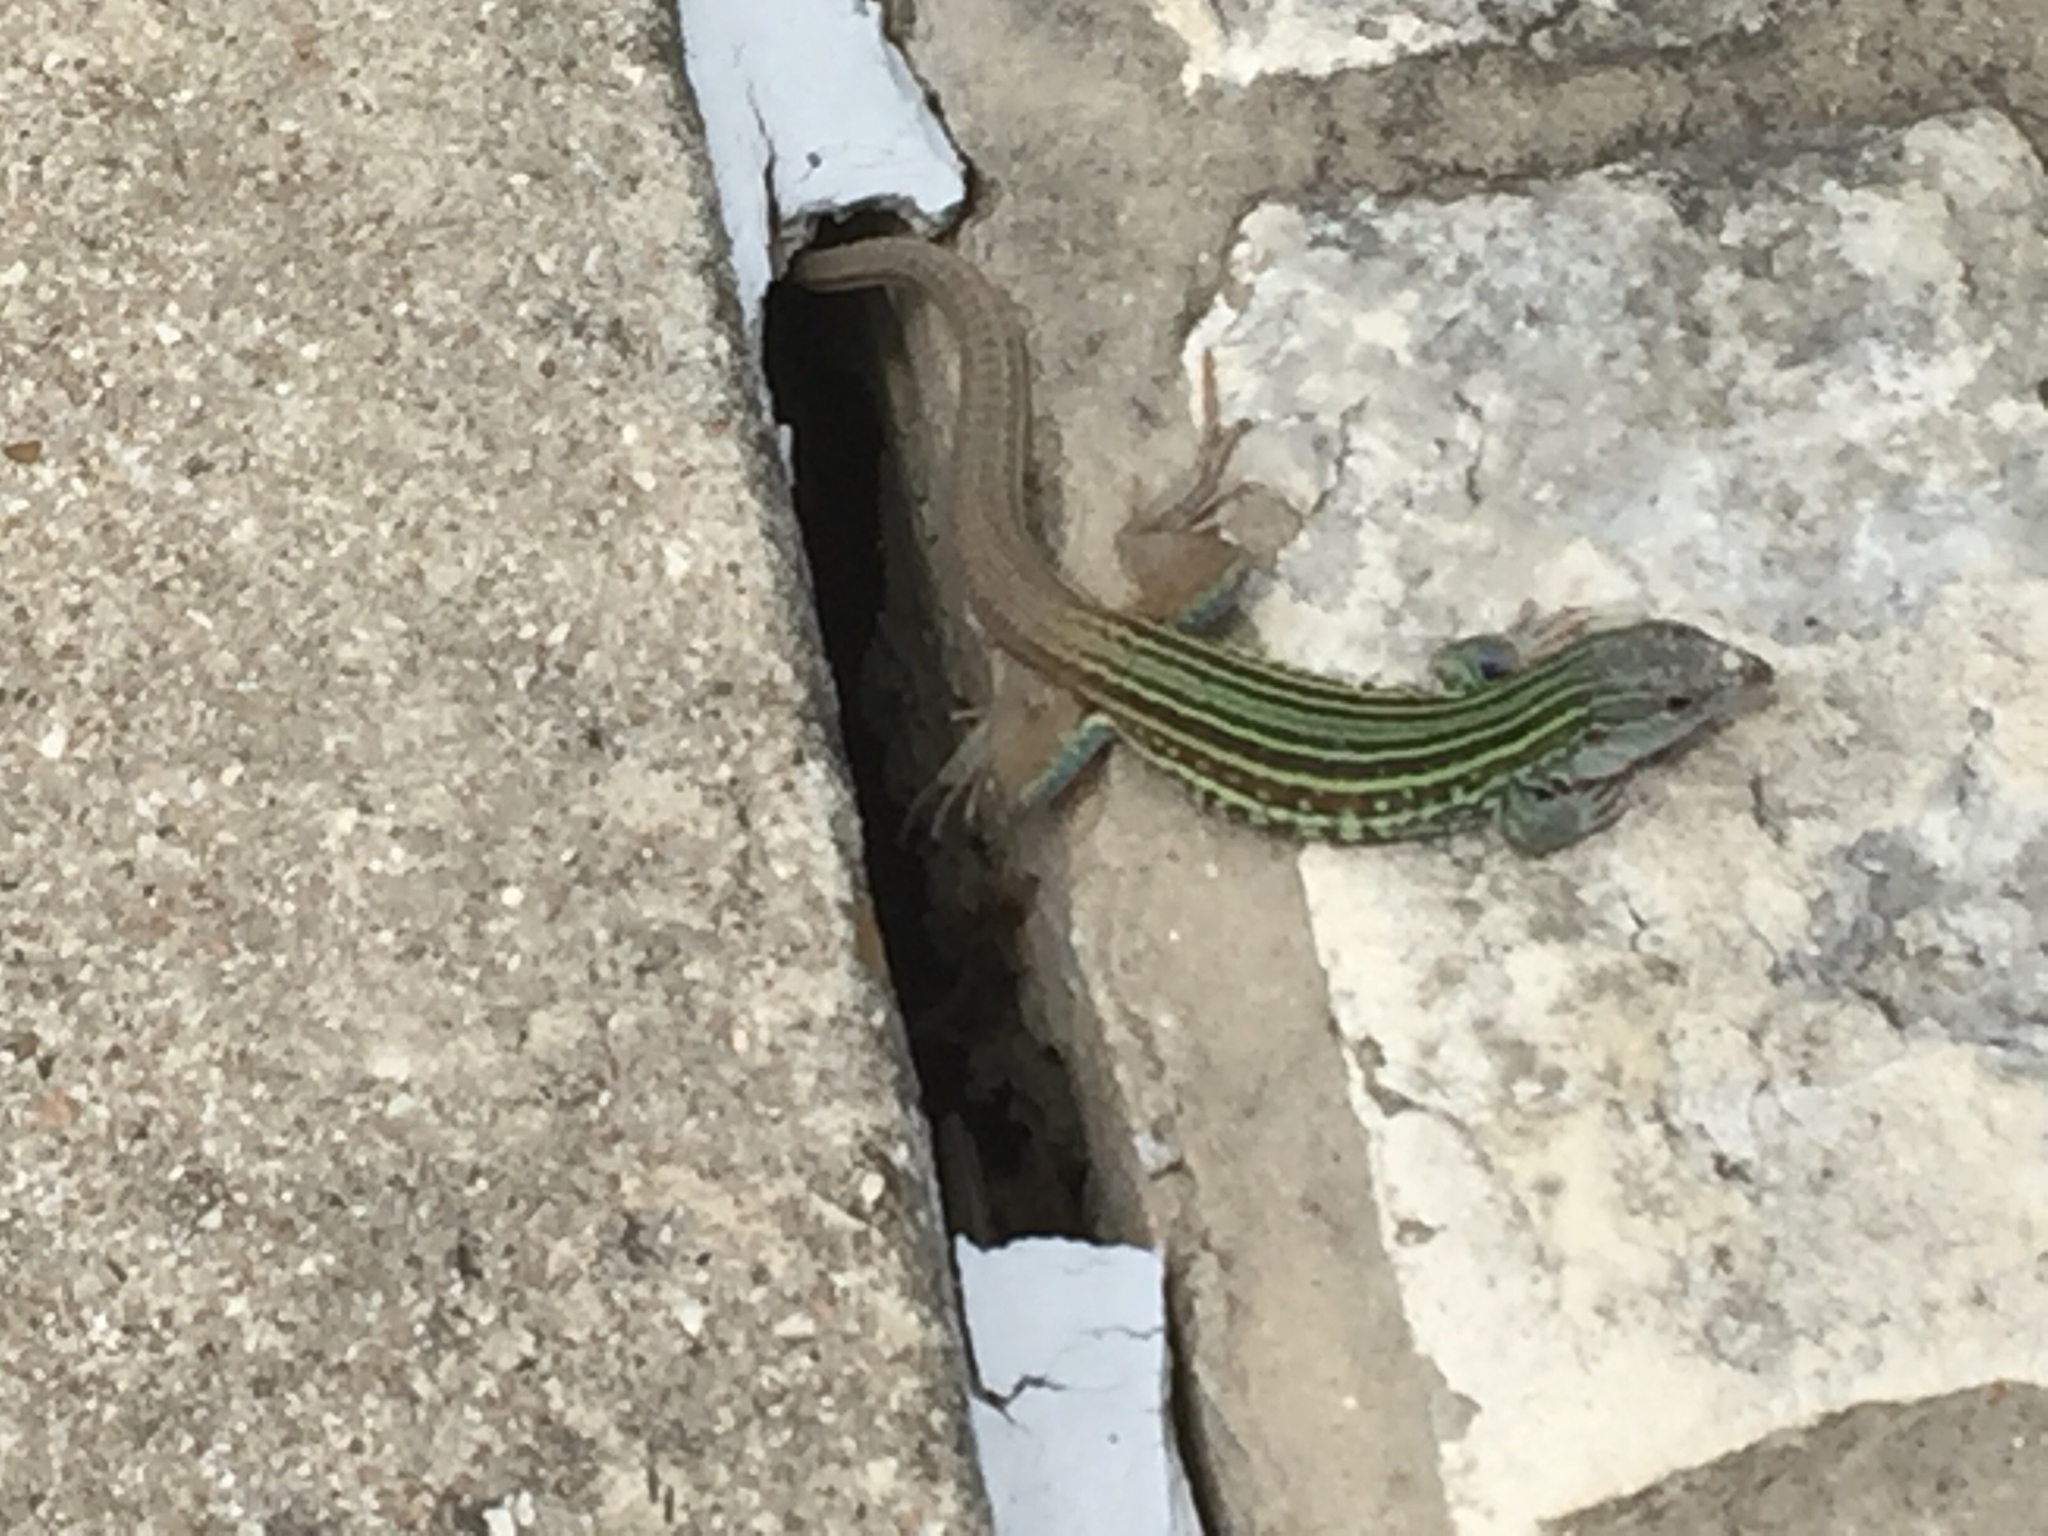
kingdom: Animalia
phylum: Chordata
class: Squamata
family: Teiidae
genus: Aspidoscelis
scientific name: Aspidoscelis gularis
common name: Eastern spotted whiptail
